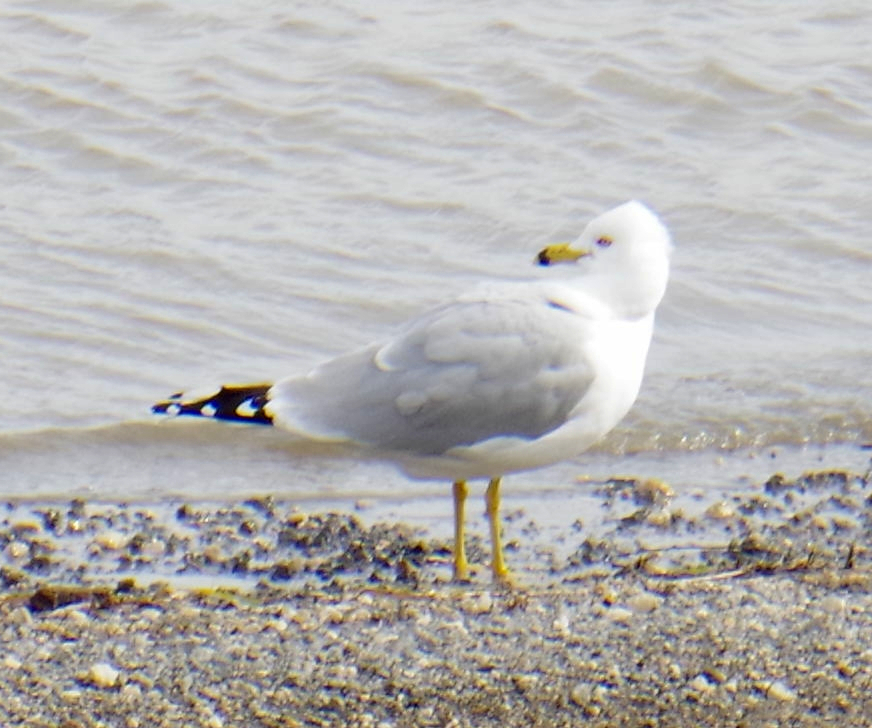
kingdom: Animalia
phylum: Chordata
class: Aves
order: Charadriiformes
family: Laridae
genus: Larus
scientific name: Larus delawarensis
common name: Ring-billed gull
